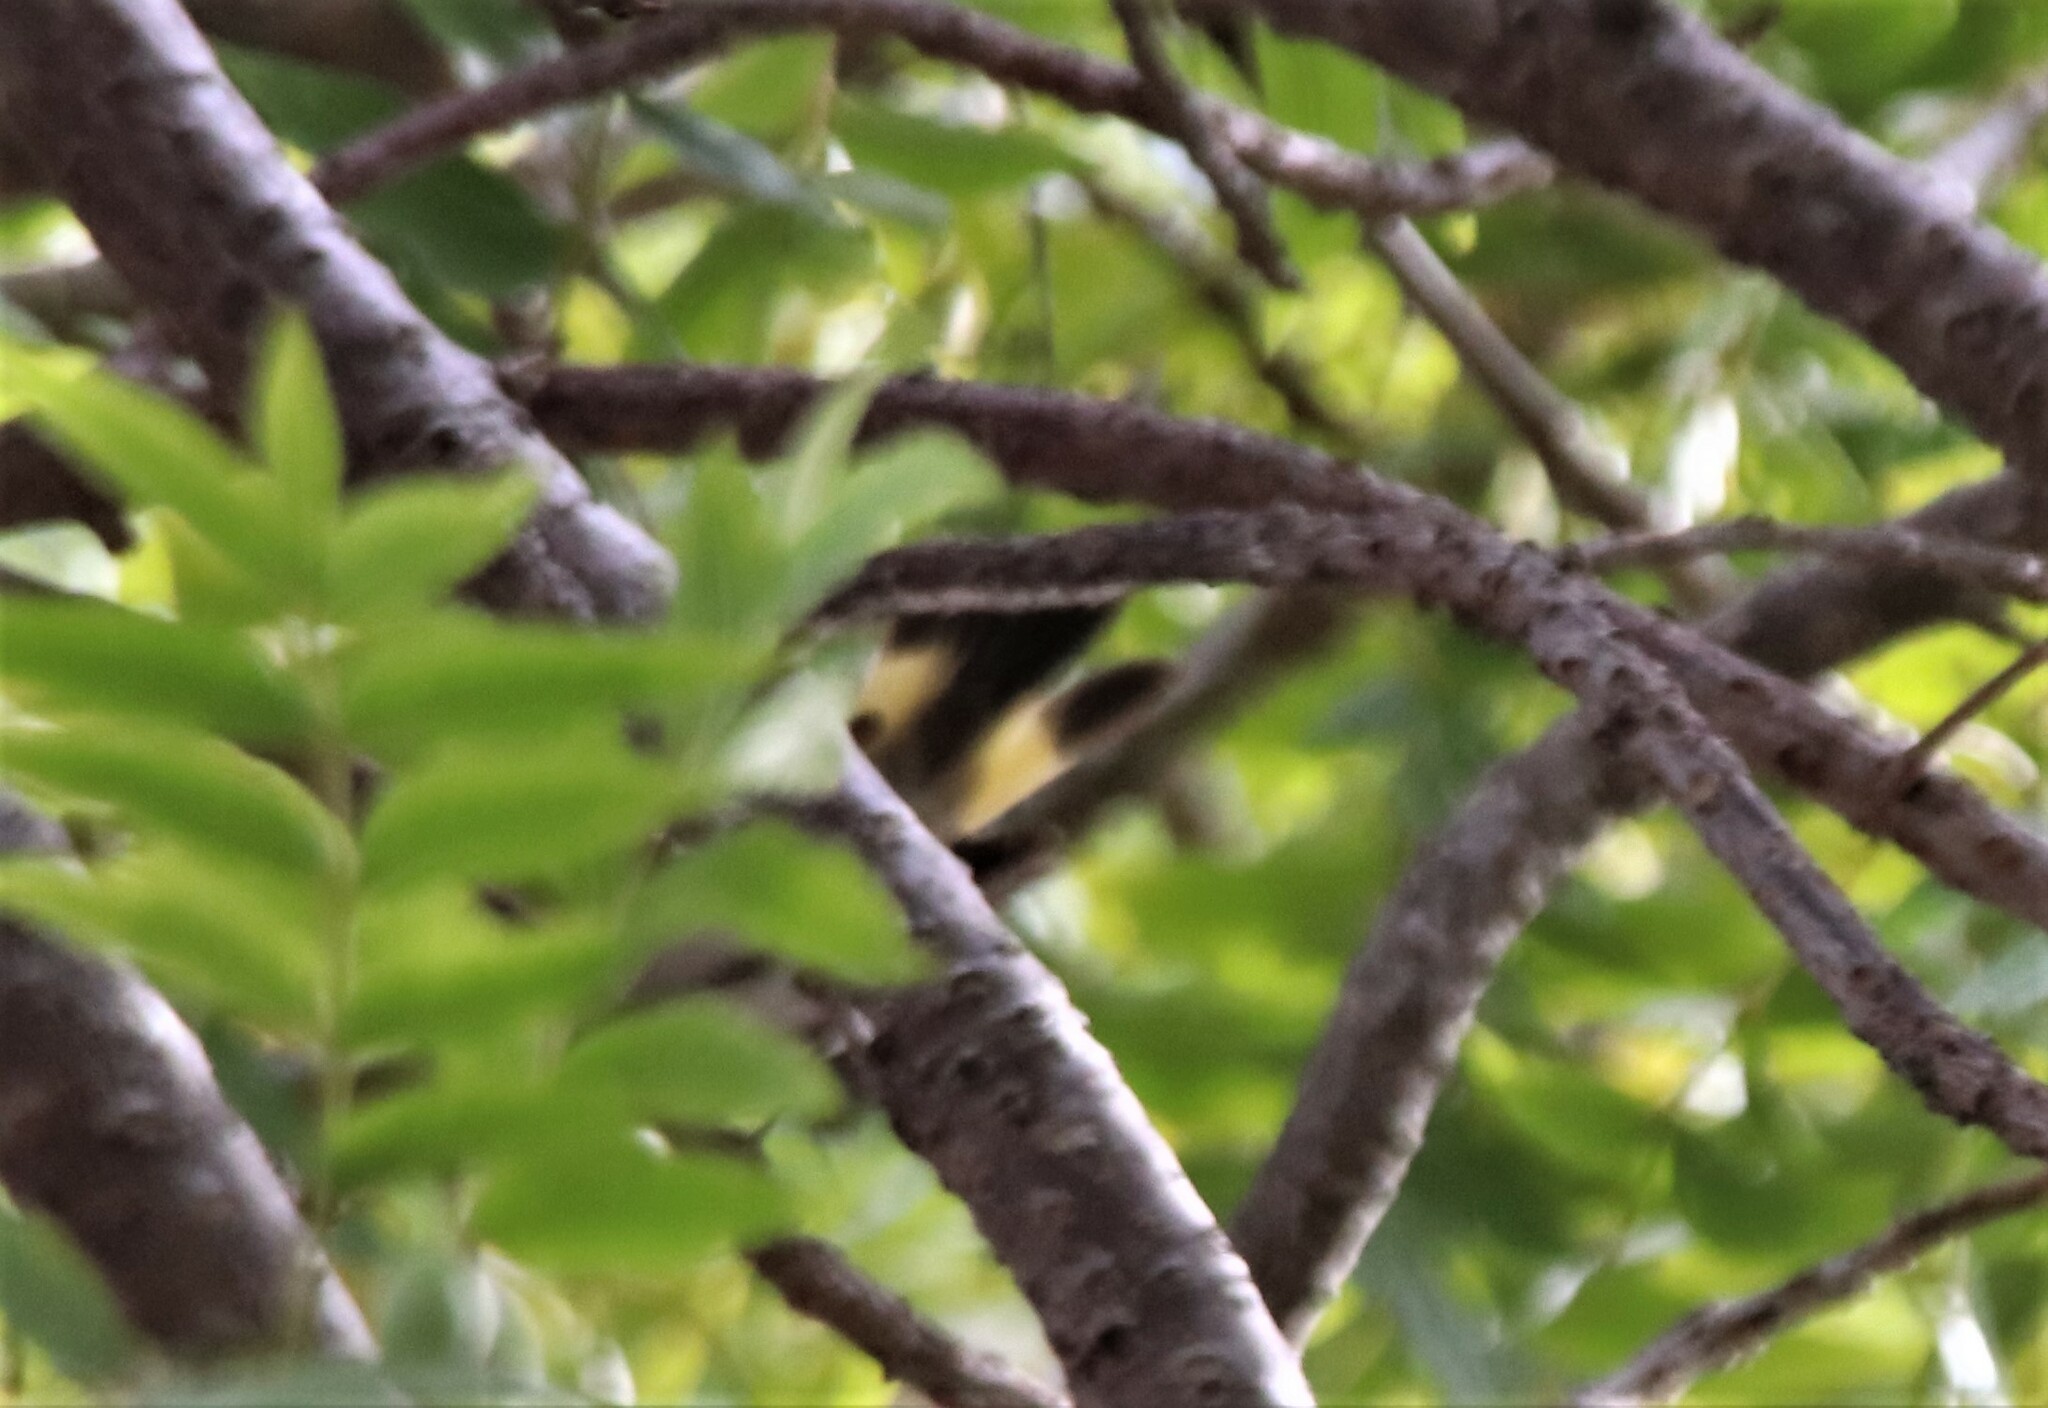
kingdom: Animalia
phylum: Chordata
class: Aves
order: Passeriformes
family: Parulidae
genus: Setophaga
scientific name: Setophaga ruticilla
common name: American redstart
